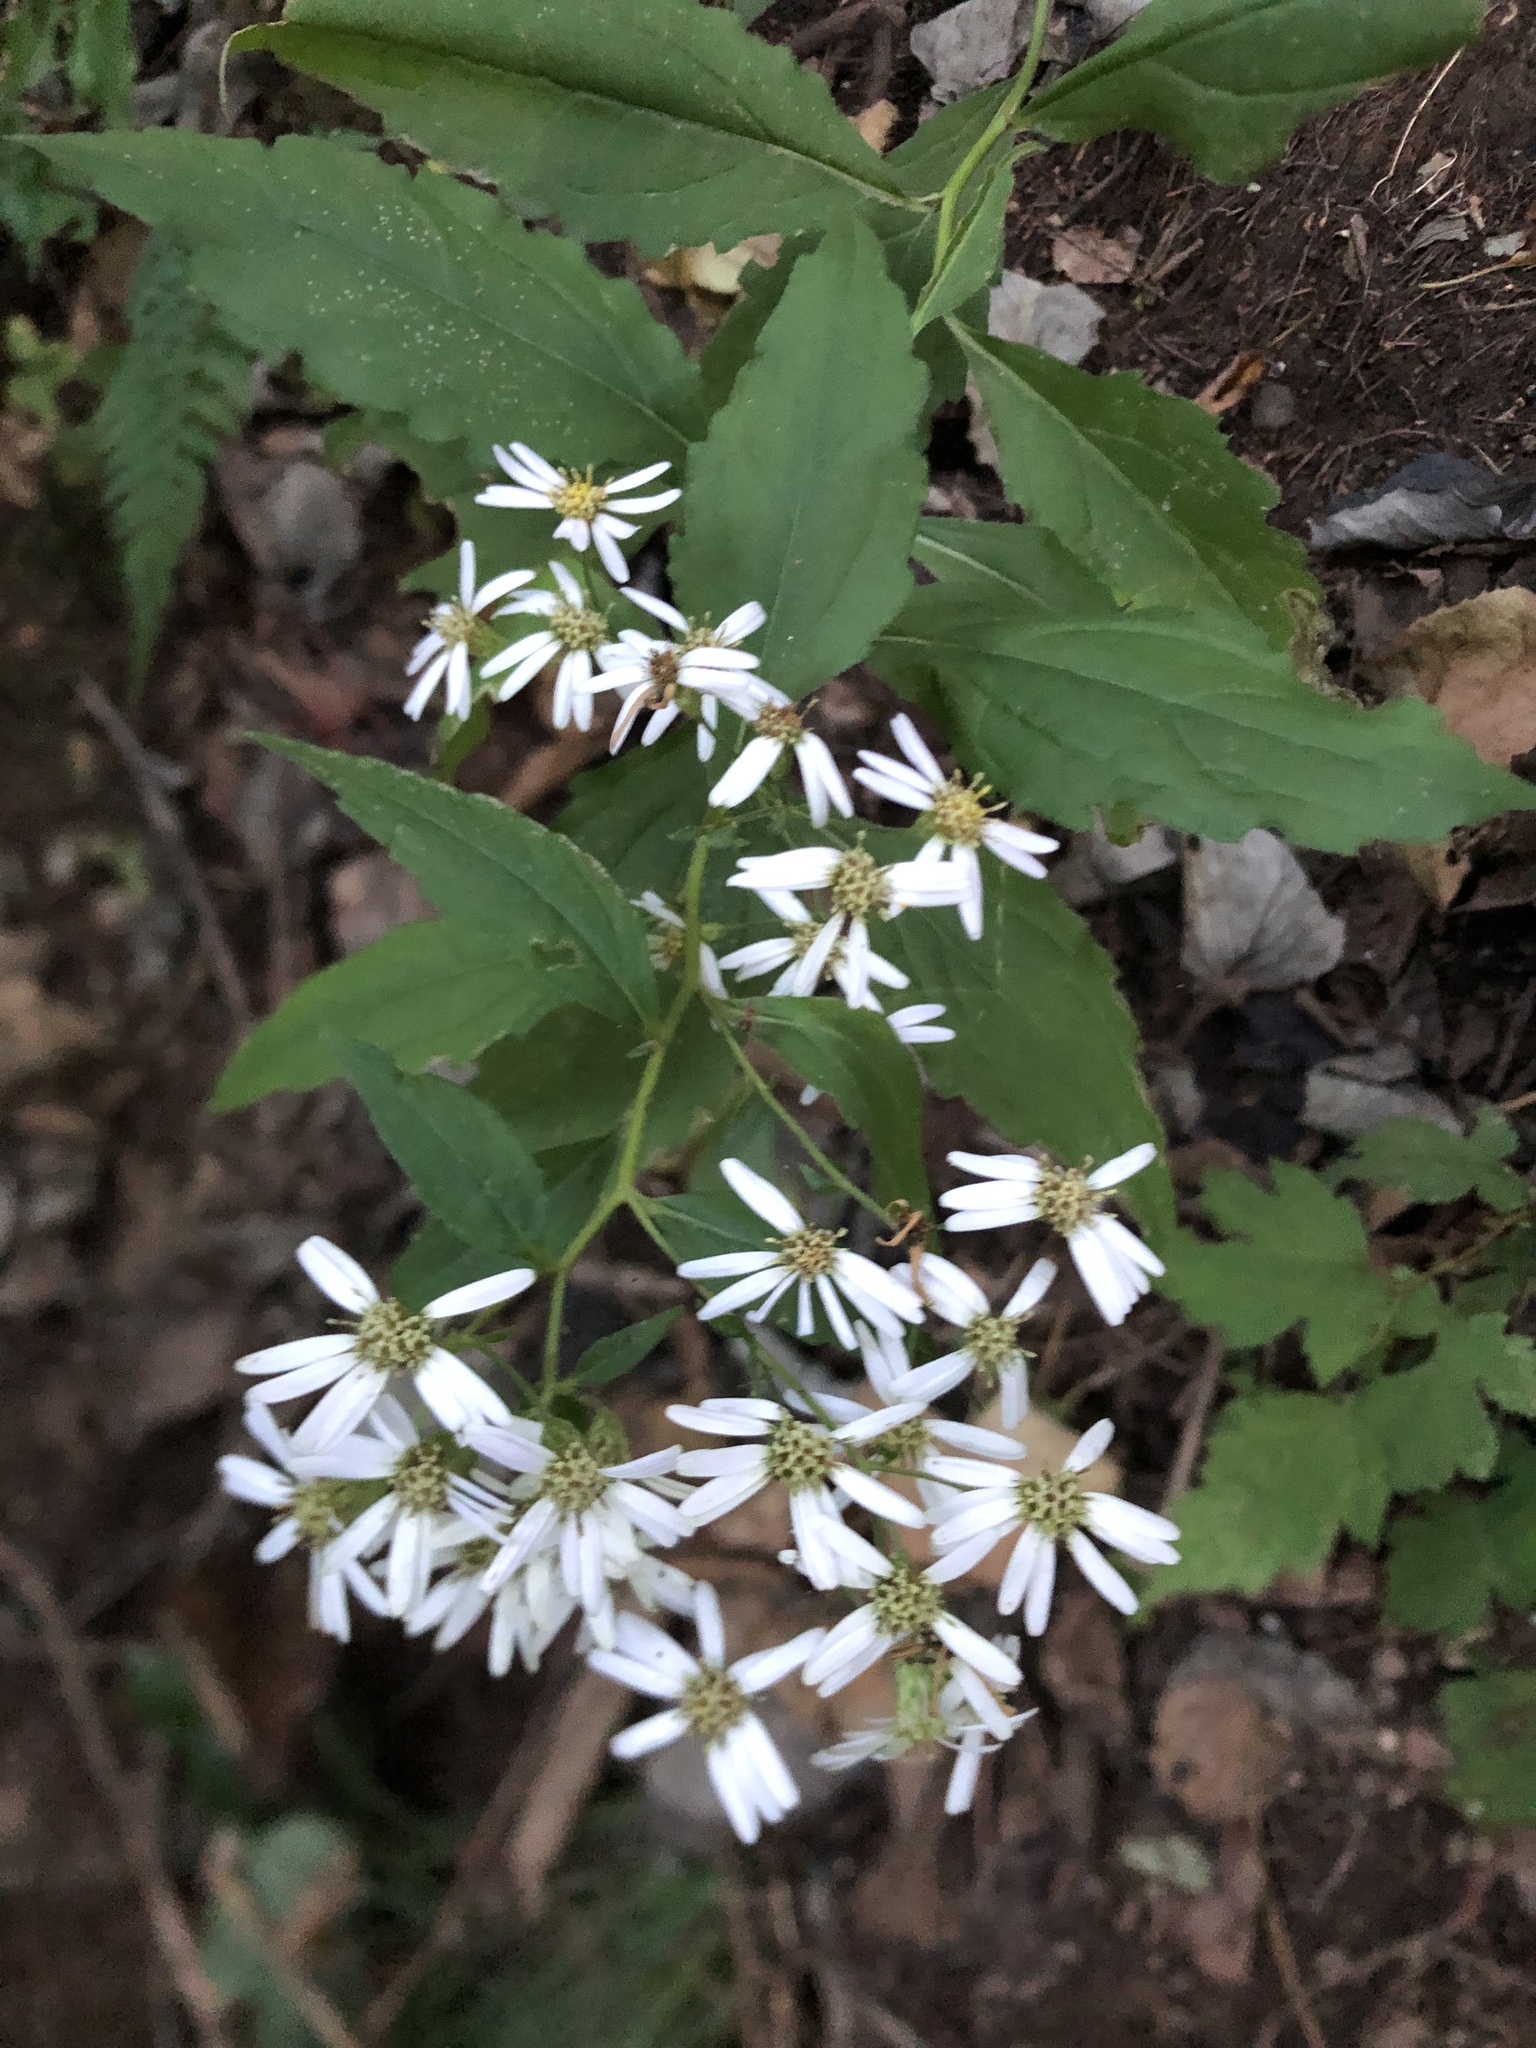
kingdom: Plantae
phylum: Tracheophyta
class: Magnoliopsida
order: Asterales
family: Asteraceae
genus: Aster
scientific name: Aster scaber
